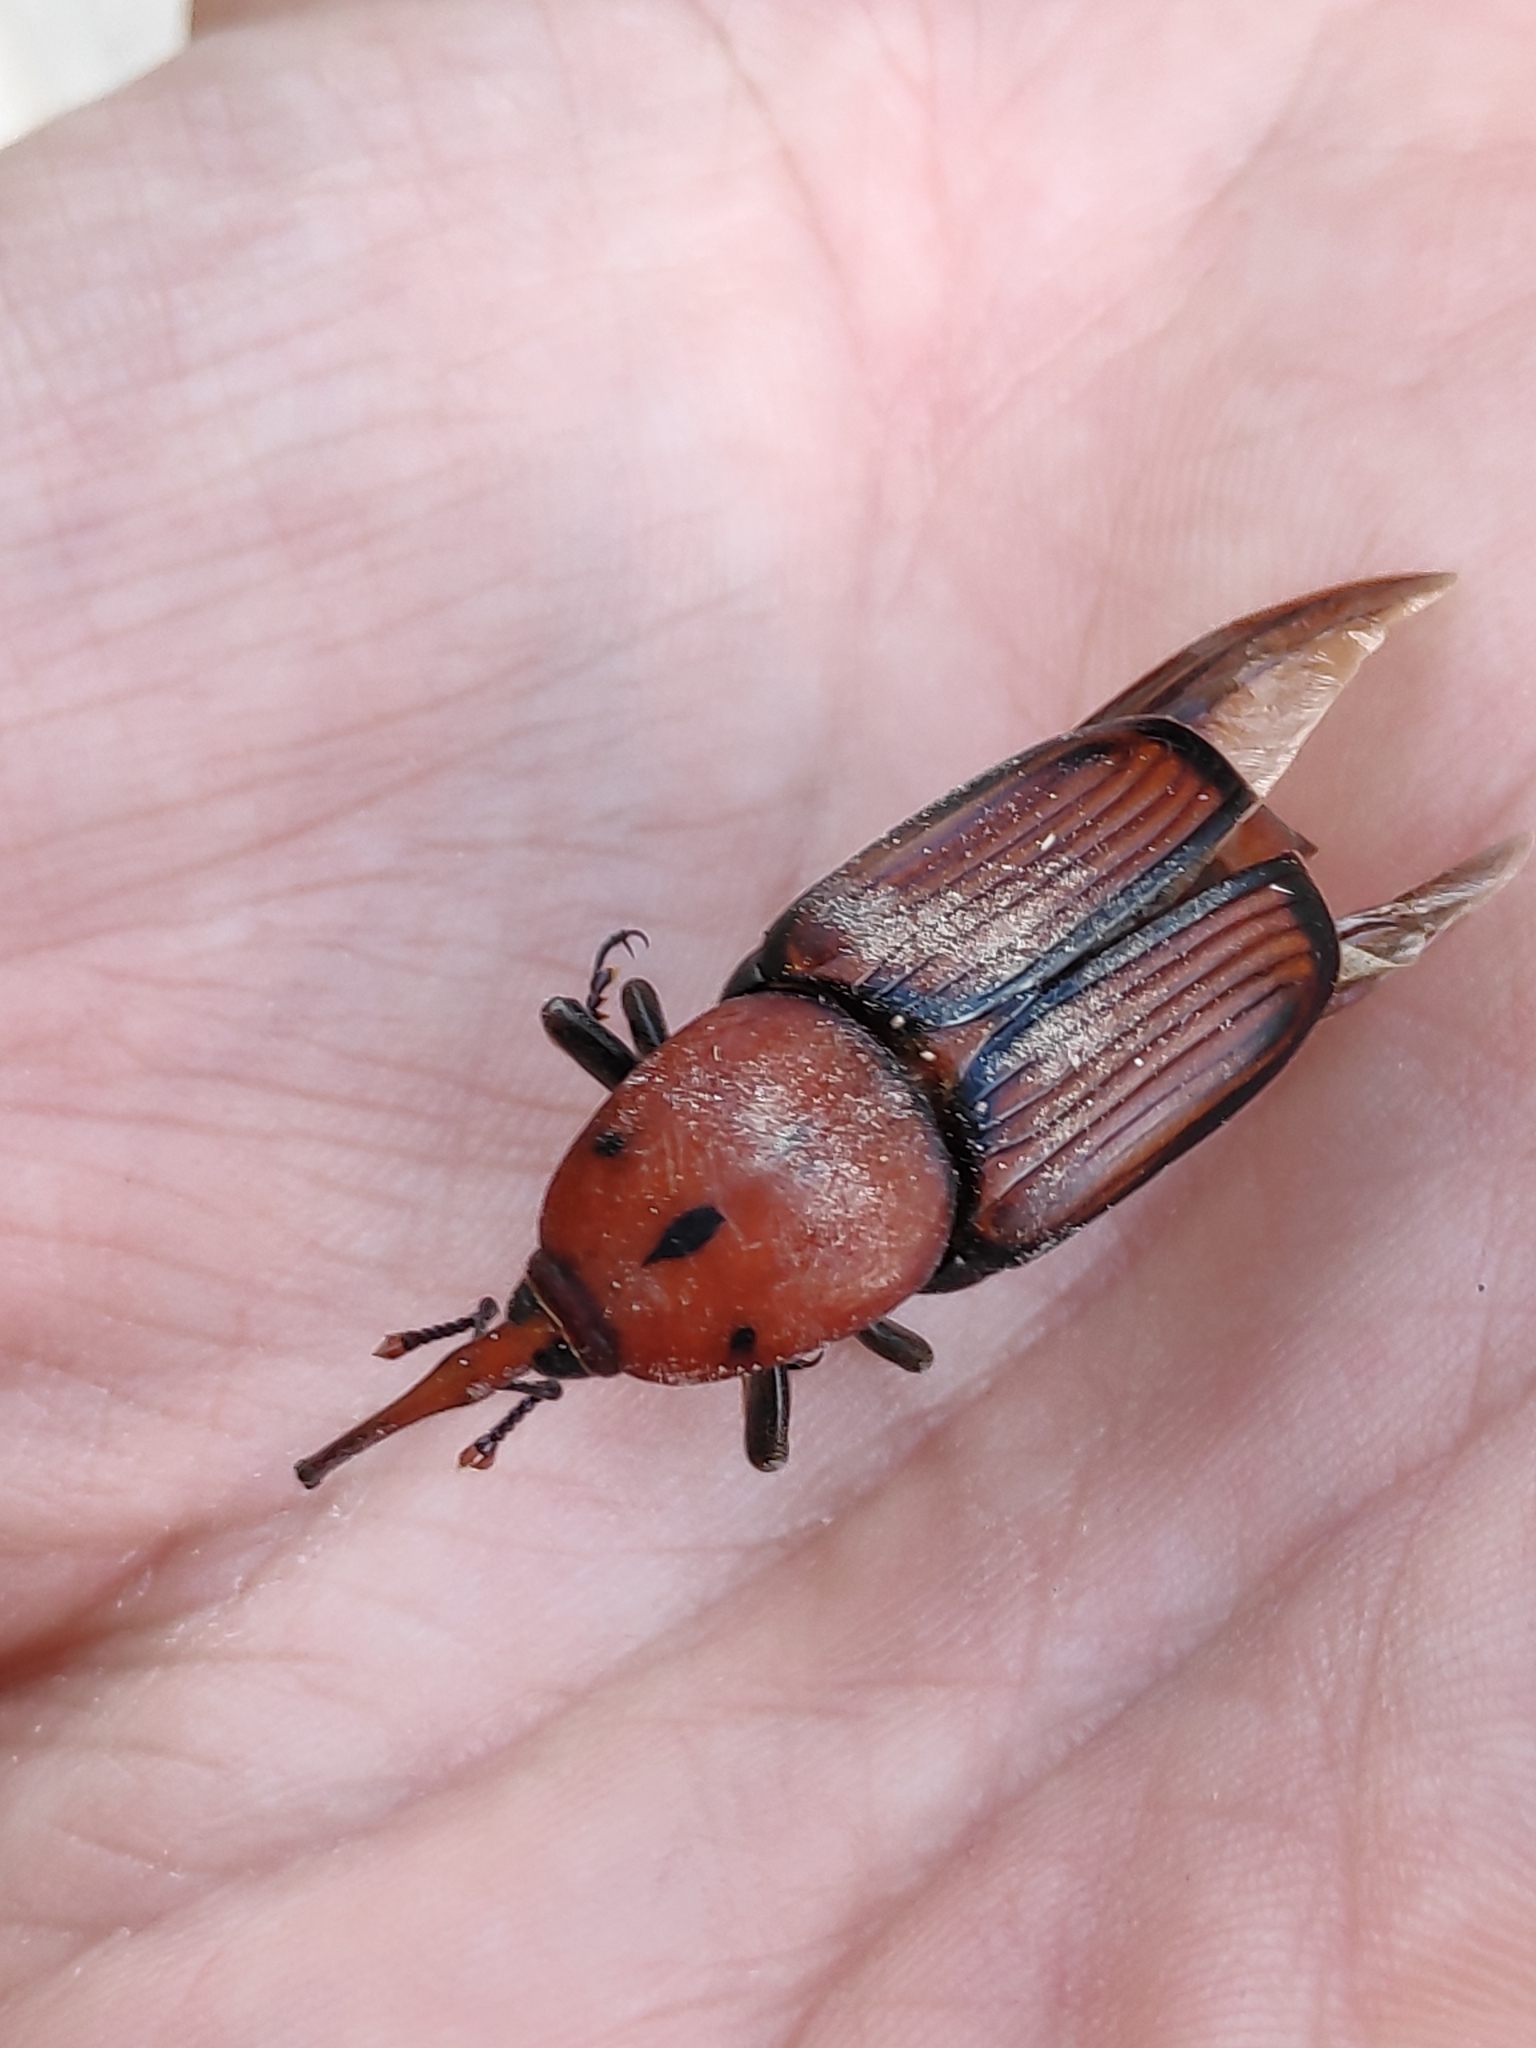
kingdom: Animalia
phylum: Arthropoda
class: Insecta
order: Coleoptera
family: Dryophthoridae
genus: Rhynchophorus
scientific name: Rhynchophorus ferrugineus
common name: Red palm weevil
